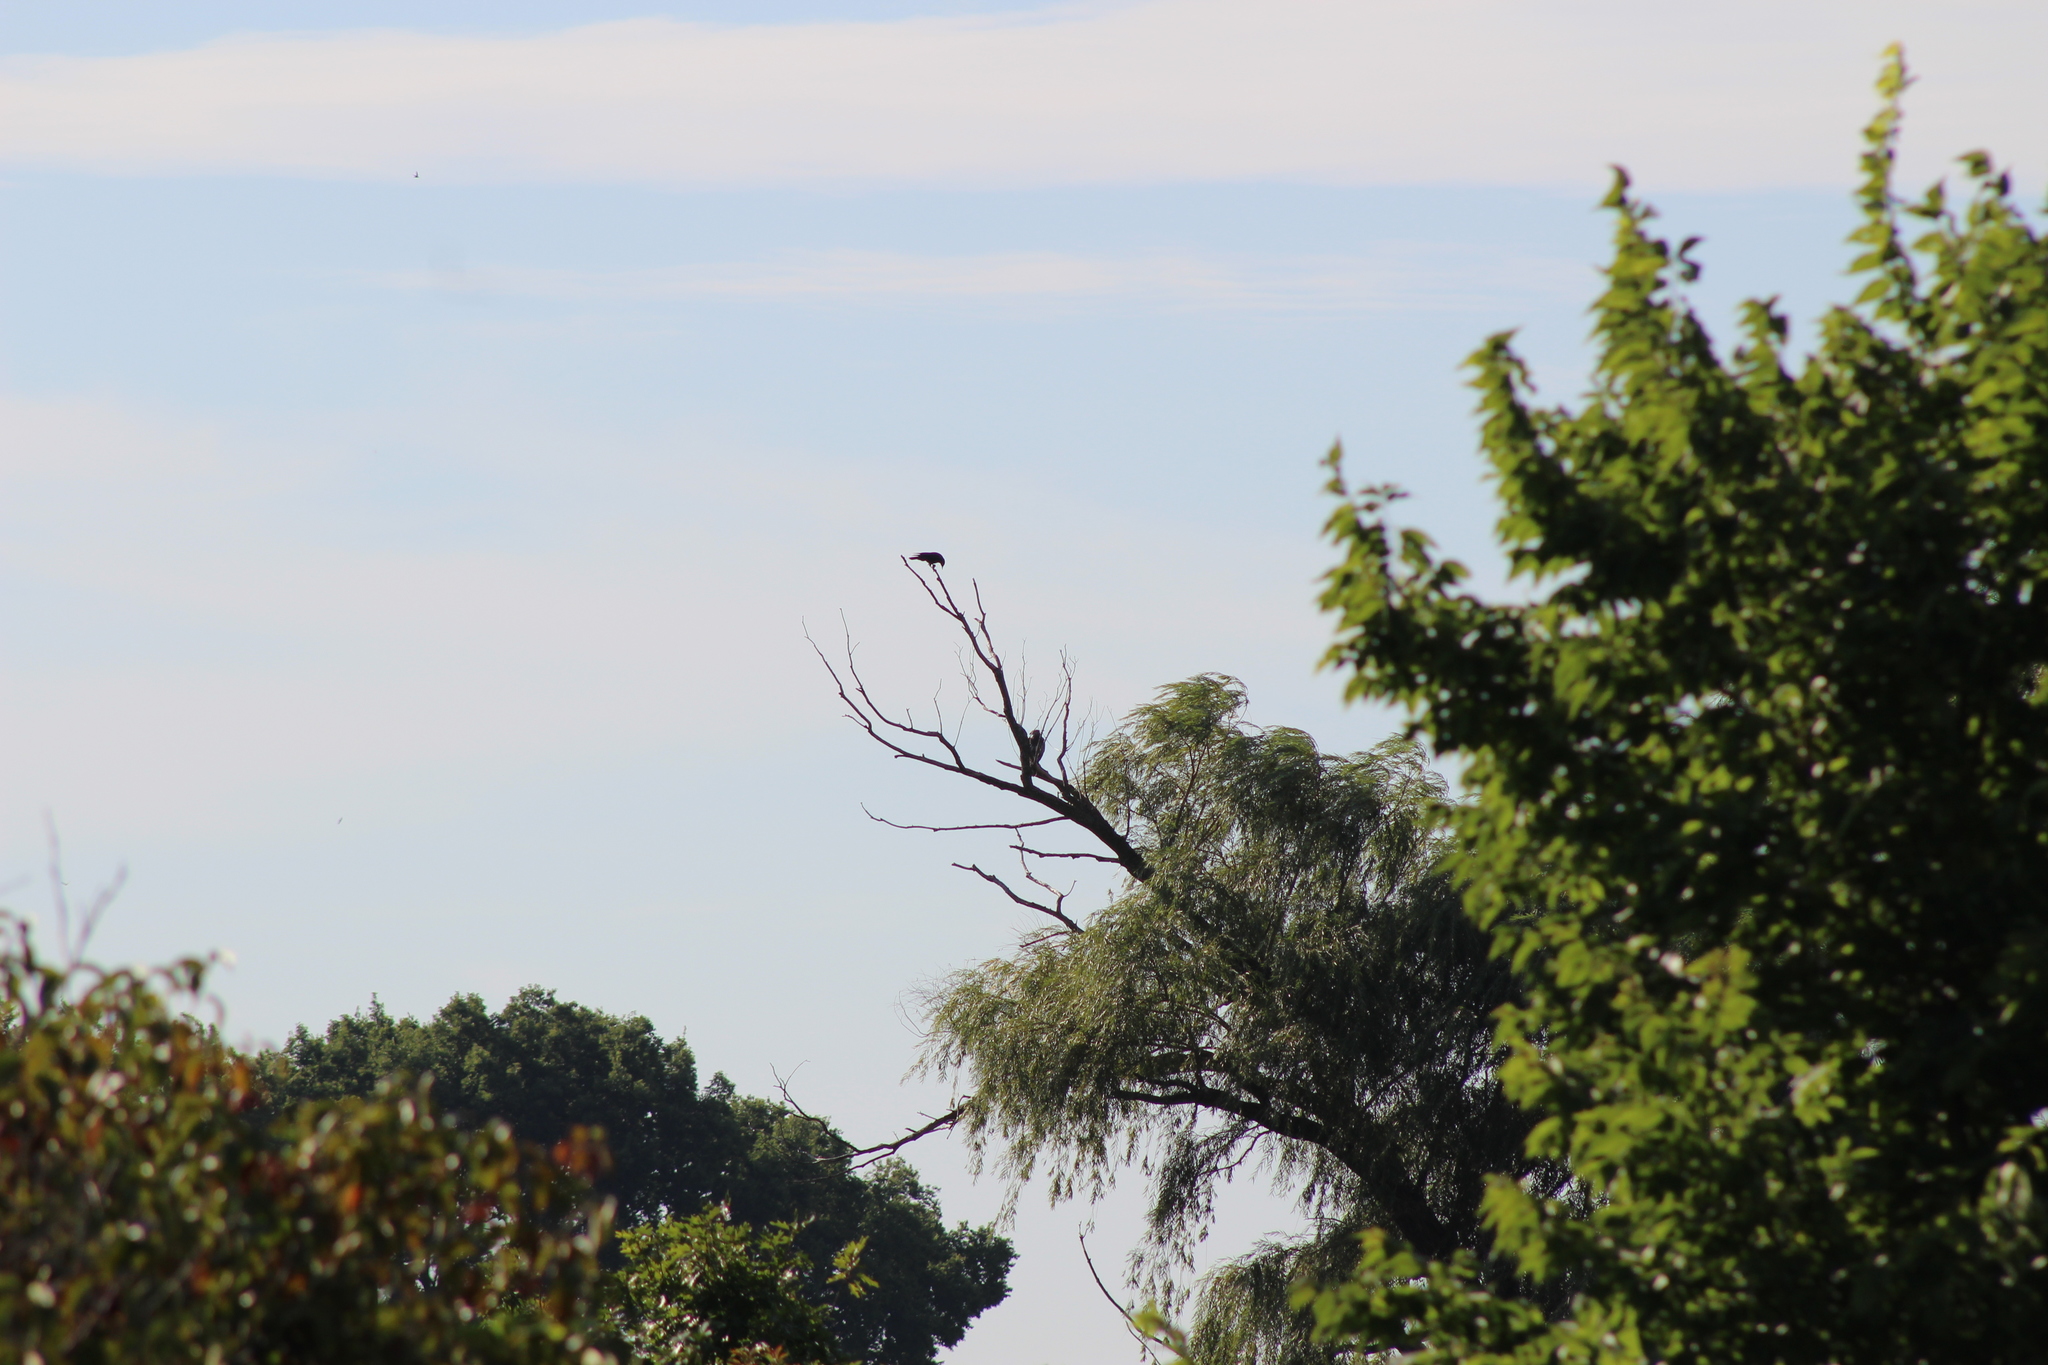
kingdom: Animalia
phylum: Chordata
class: Aves
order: Passeriformes
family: Corvidae
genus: Corvus
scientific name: Corvus brachyrhynchos
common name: American crow
